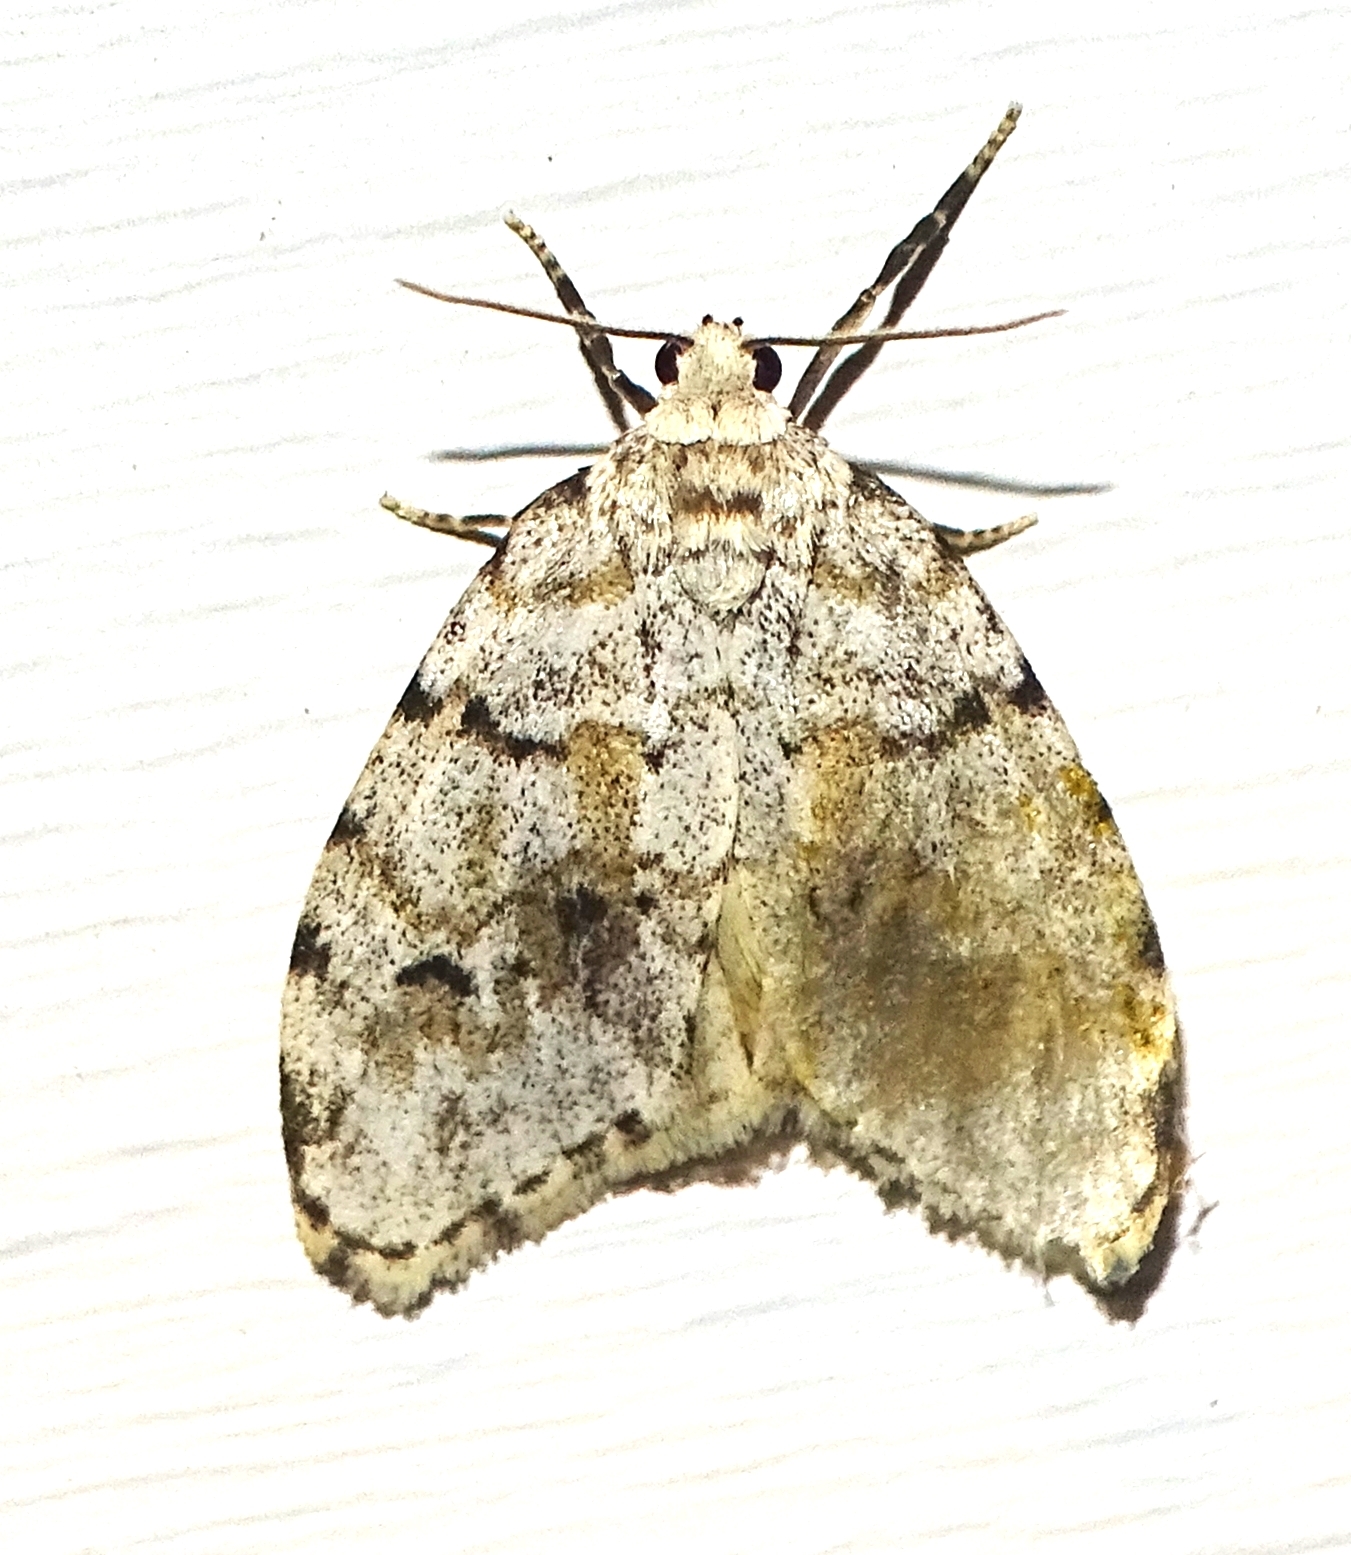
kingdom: Animalia
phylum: Arthropoda
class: Insecta
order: Lepidoptera
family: Erebidae
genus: Clemensia
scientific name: Clemensia albata
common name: Little white lichen moth
